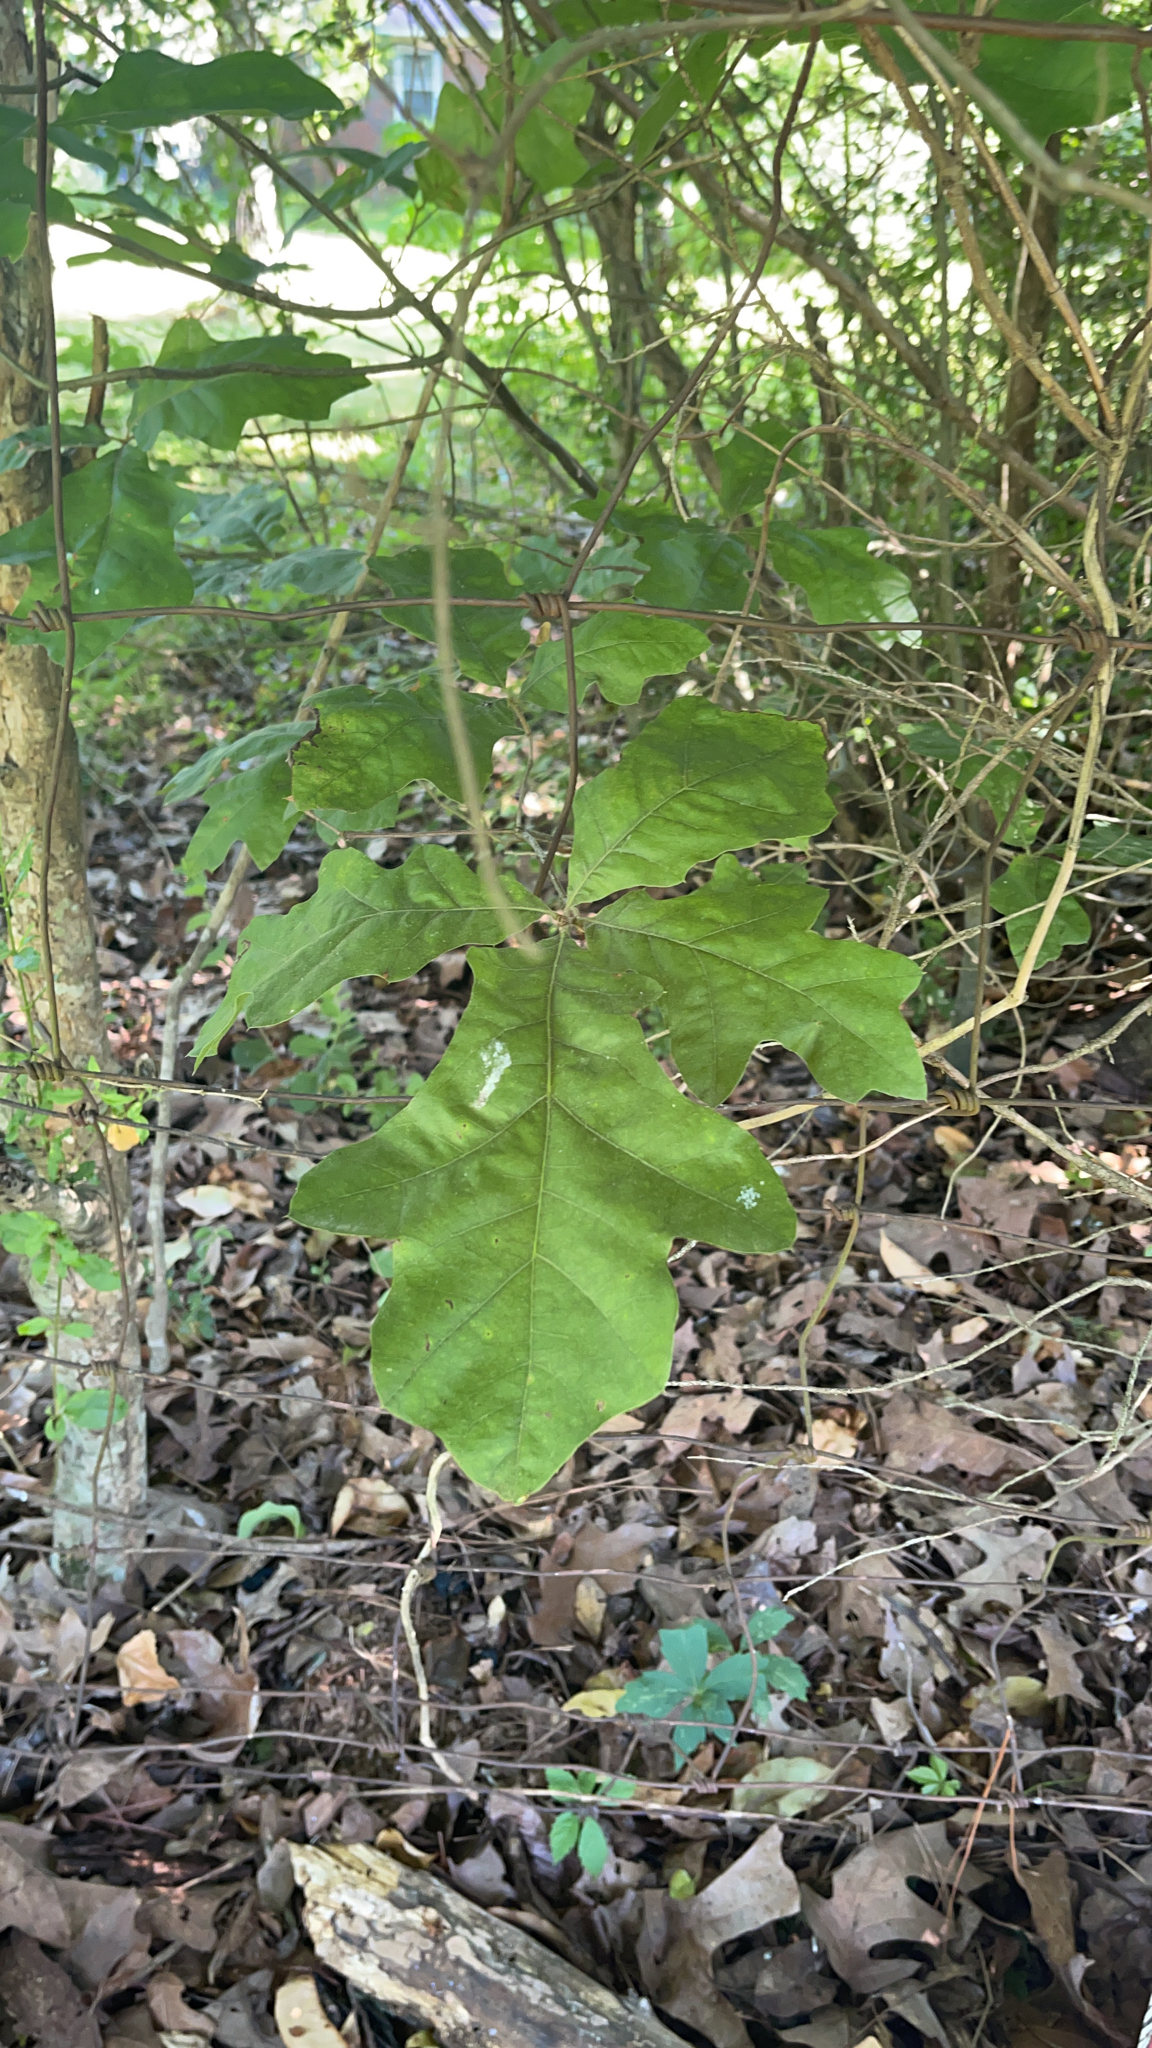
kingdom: Plantae
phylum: Tracheophyta
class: Magnoliopsida
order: Fagales
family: Fagaceae
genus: Quercus
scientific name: Quercus alba
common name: White oak
